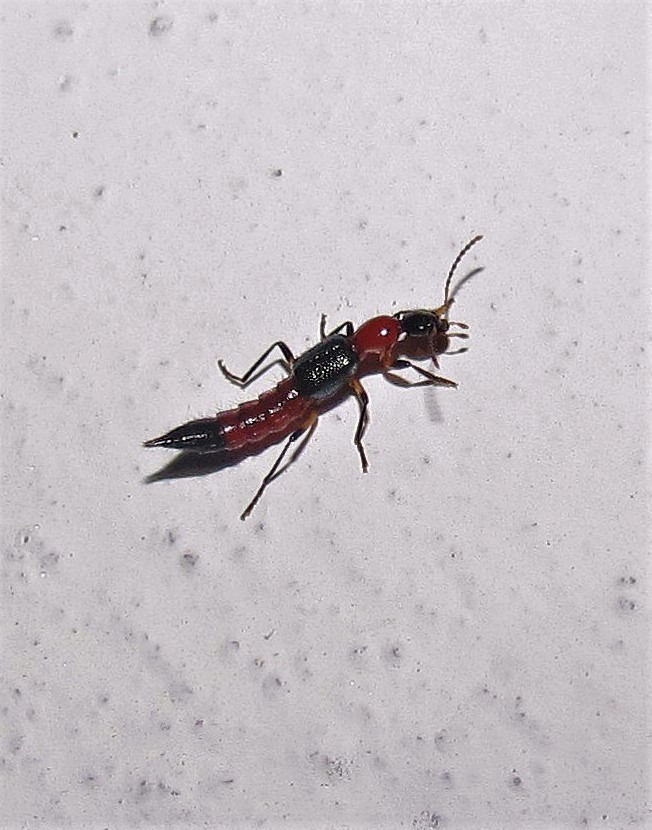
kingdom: Animalia
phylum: Arthropoda
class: Insecta
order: Coleoptera
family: Staphylinidae
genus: Paederus
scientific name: Paederus
